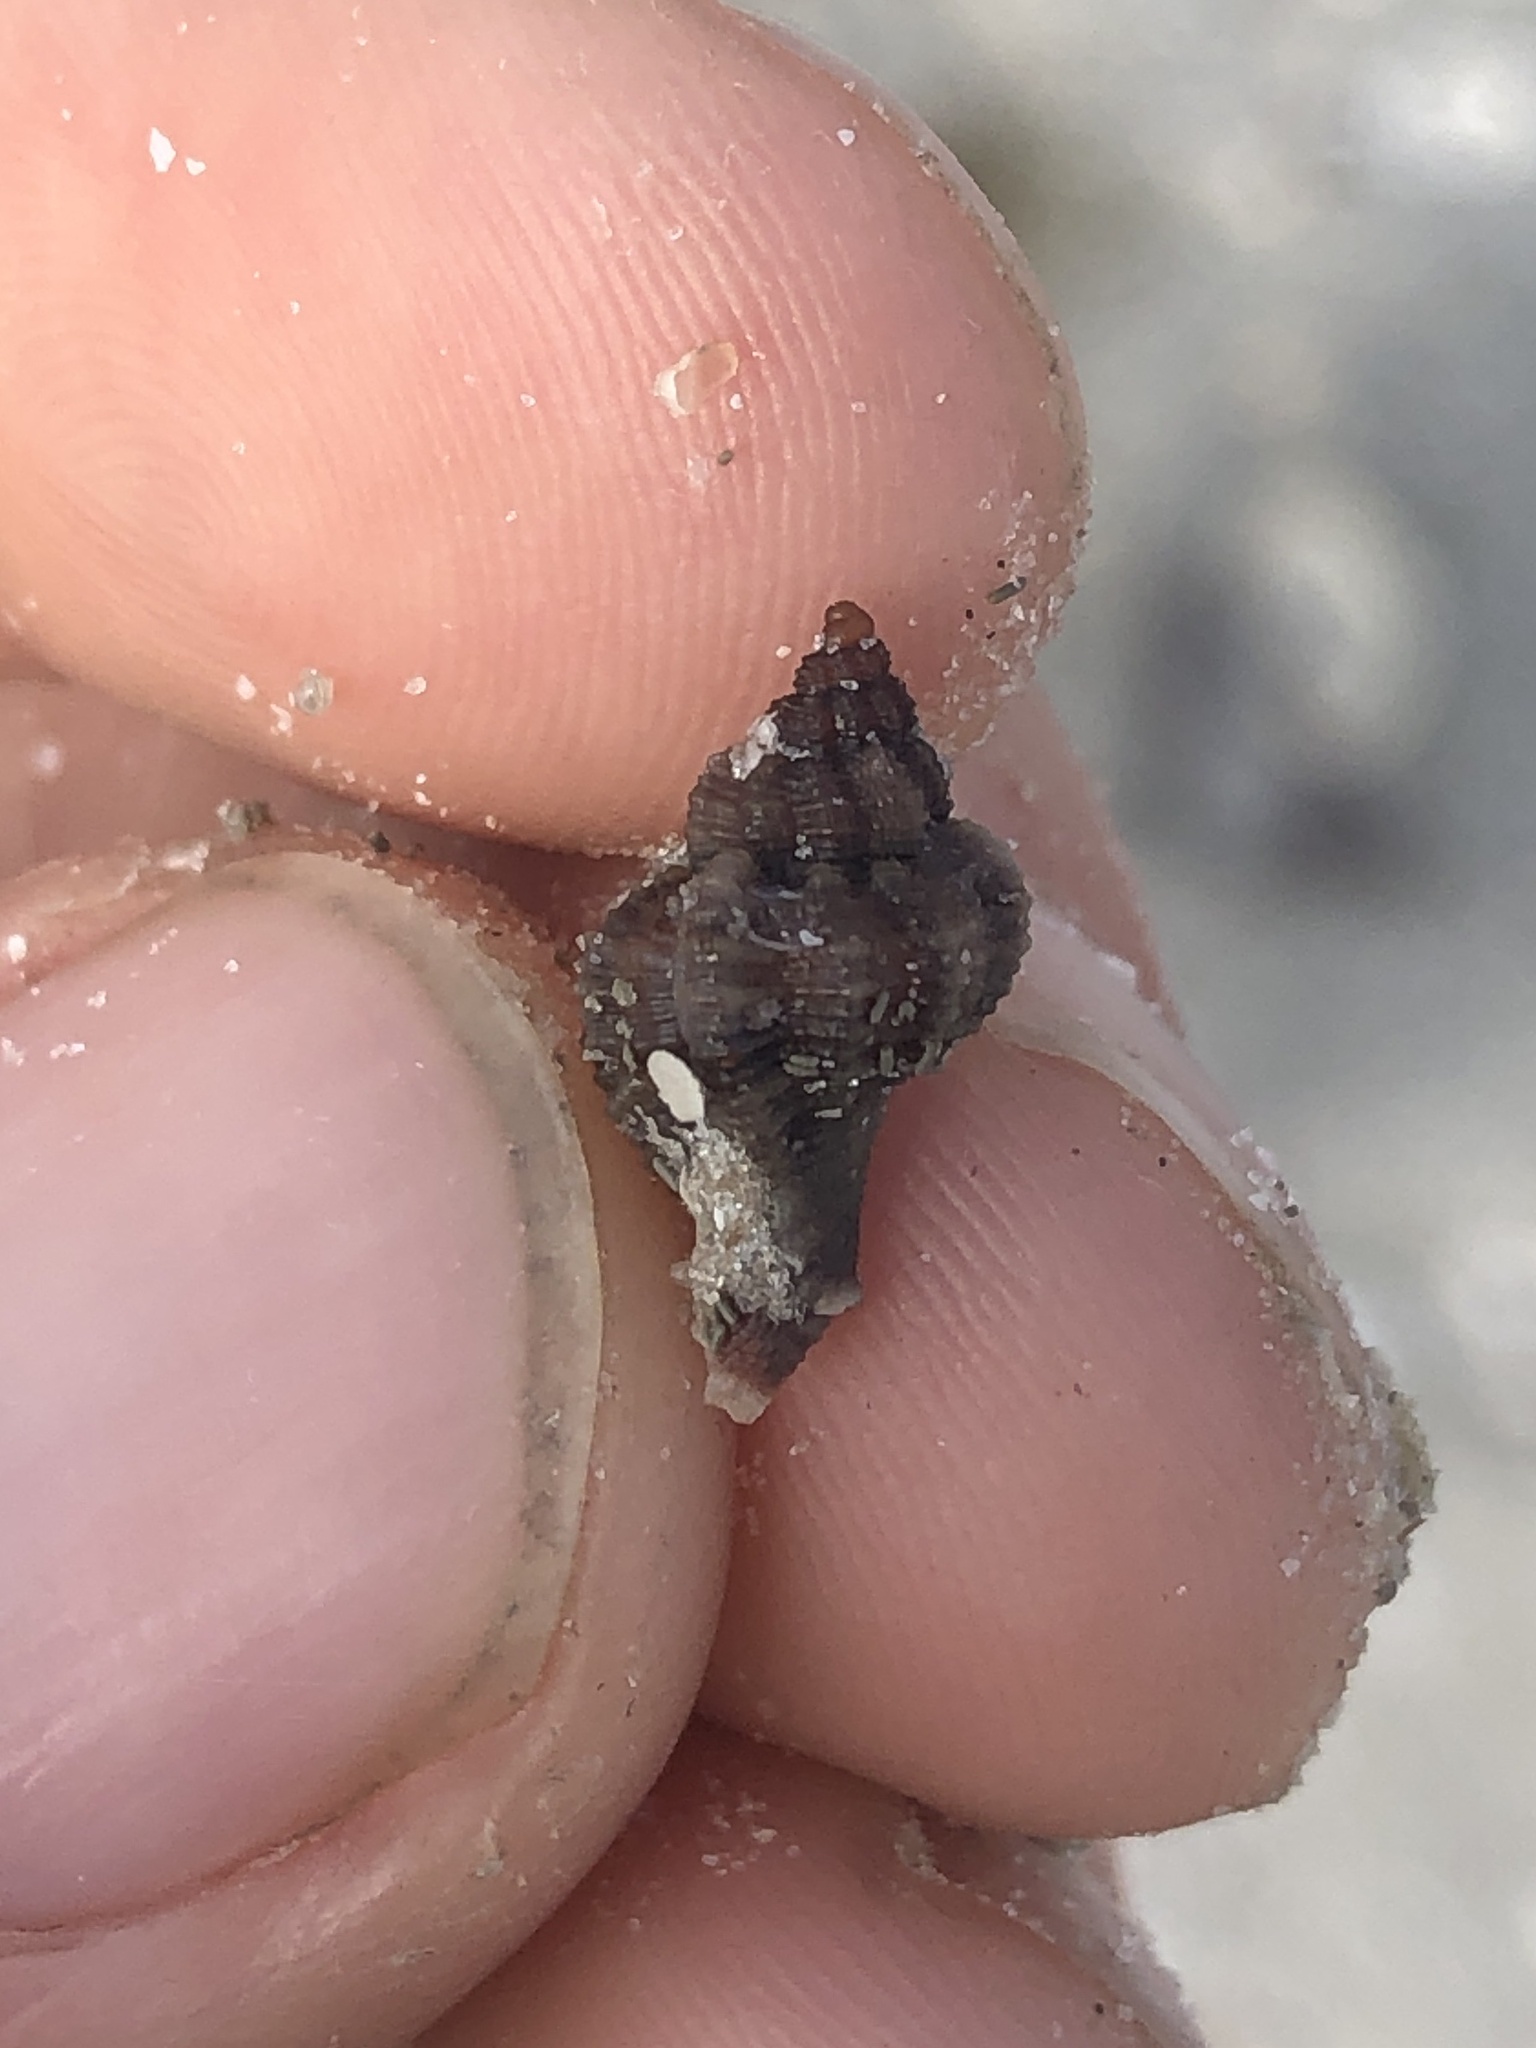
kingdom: Animalia
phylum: Mollusca
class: Gastropoda
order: Neogastropoda
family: Muricidae
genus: Phyllonotus
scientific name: Phyllonotus pomum
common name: Apple murex
